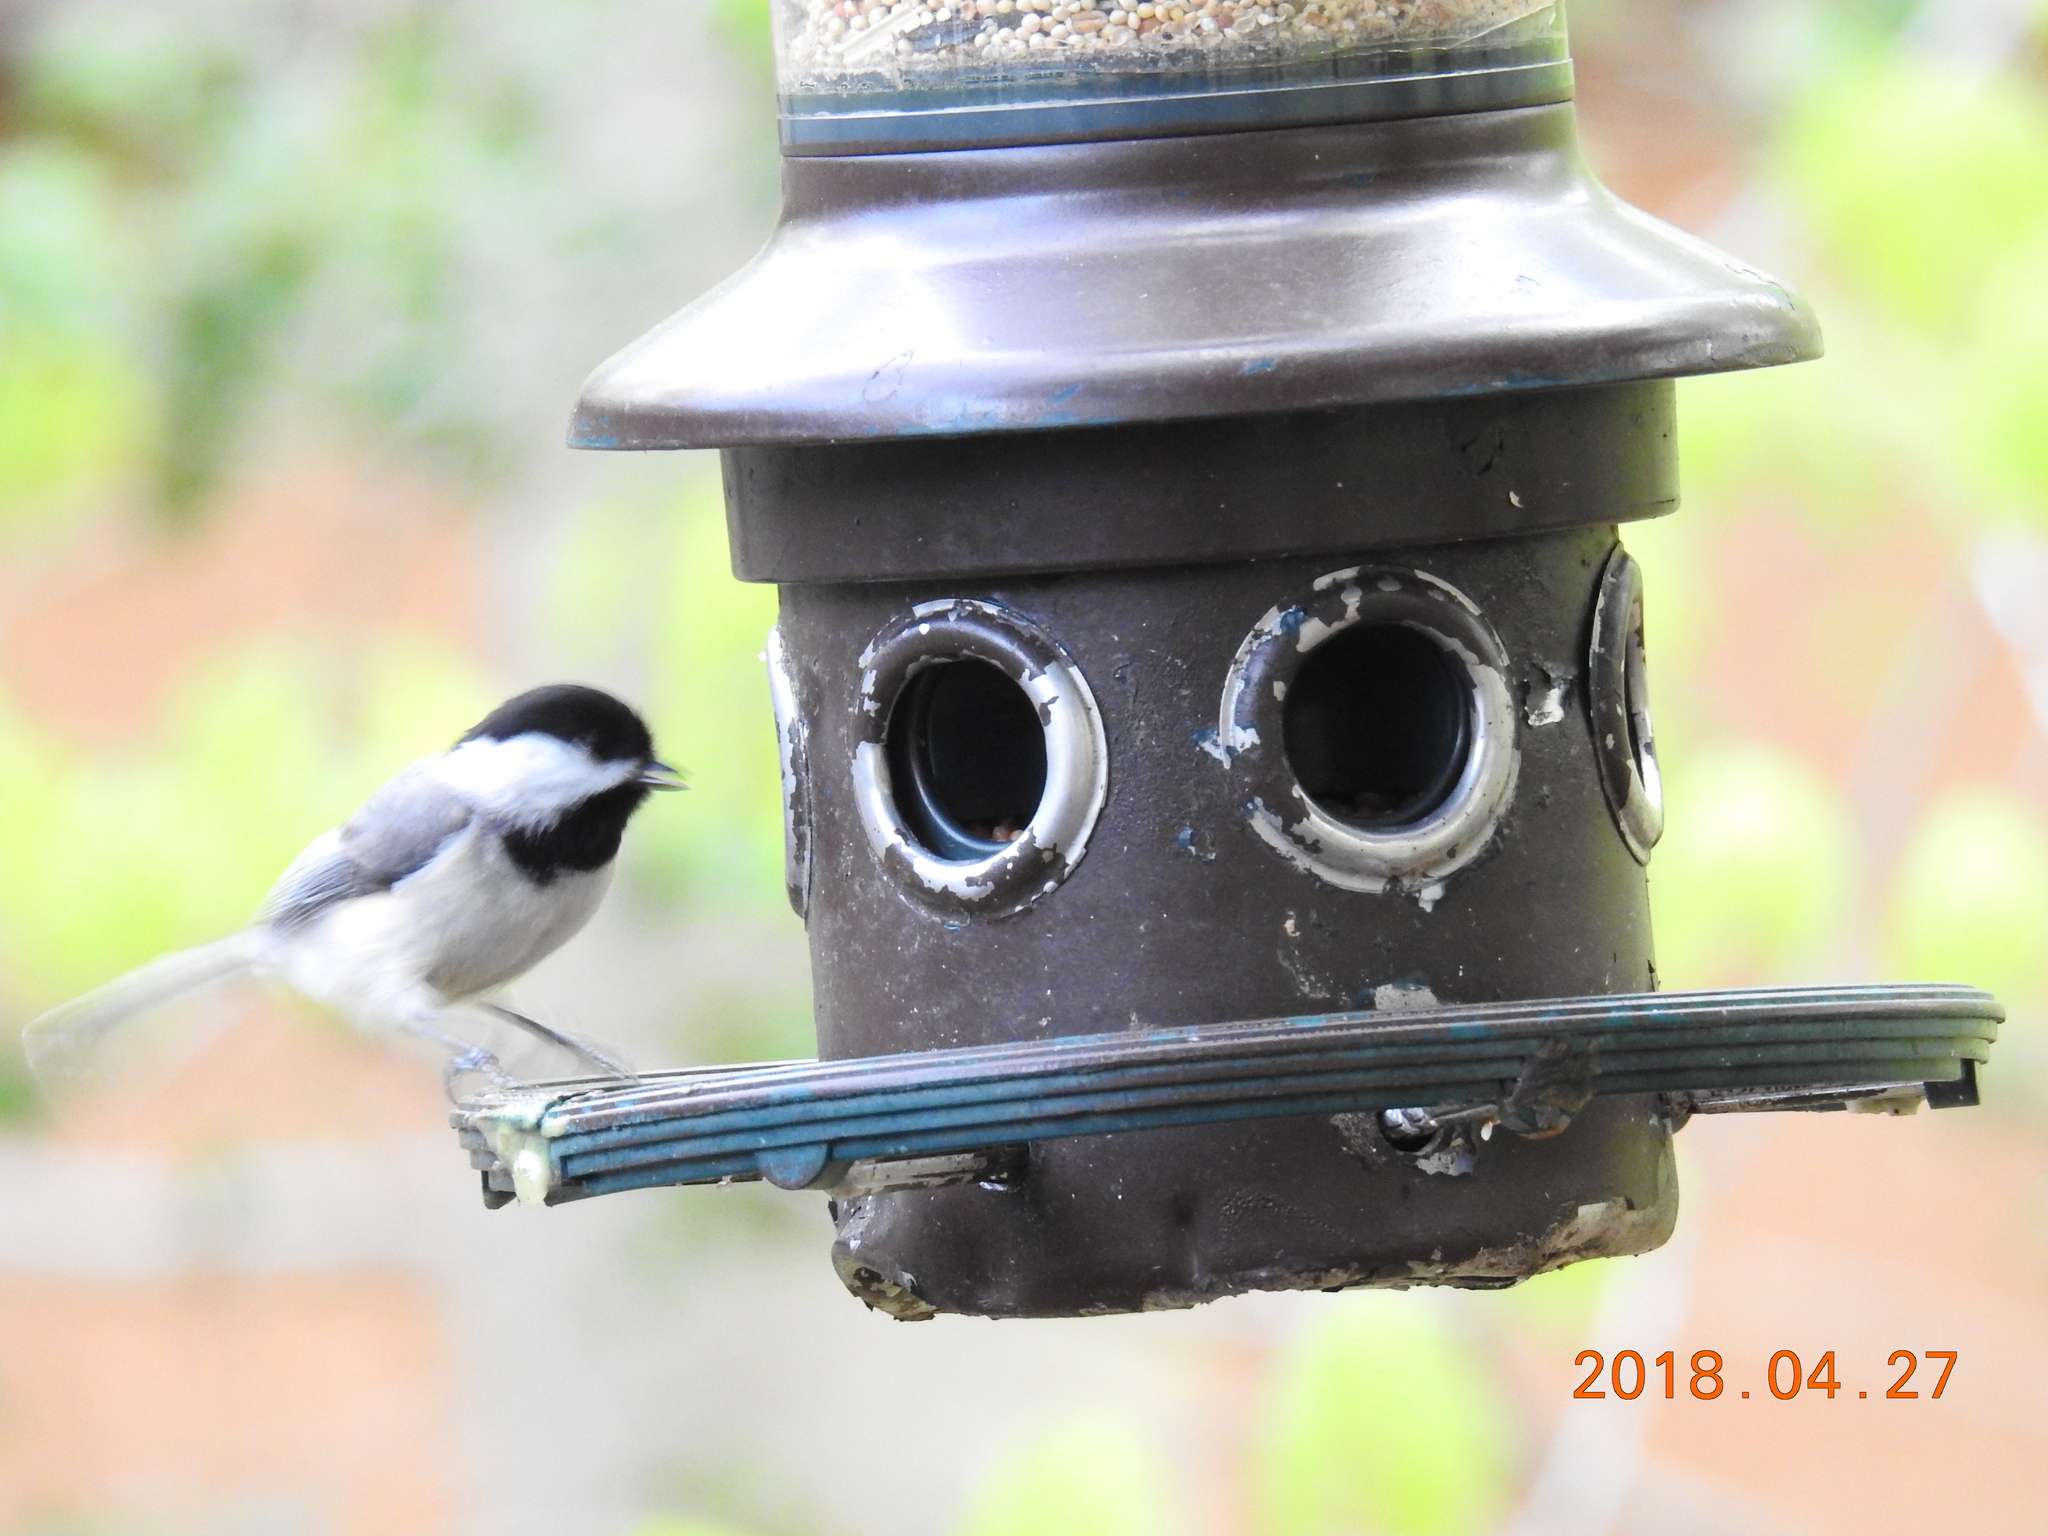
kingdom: Animalia
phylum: Chordata
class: Aves
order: Passeriformes
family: Paridae
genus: Poecile
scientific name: Poecile carolinensis
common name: Carolina chickadee
